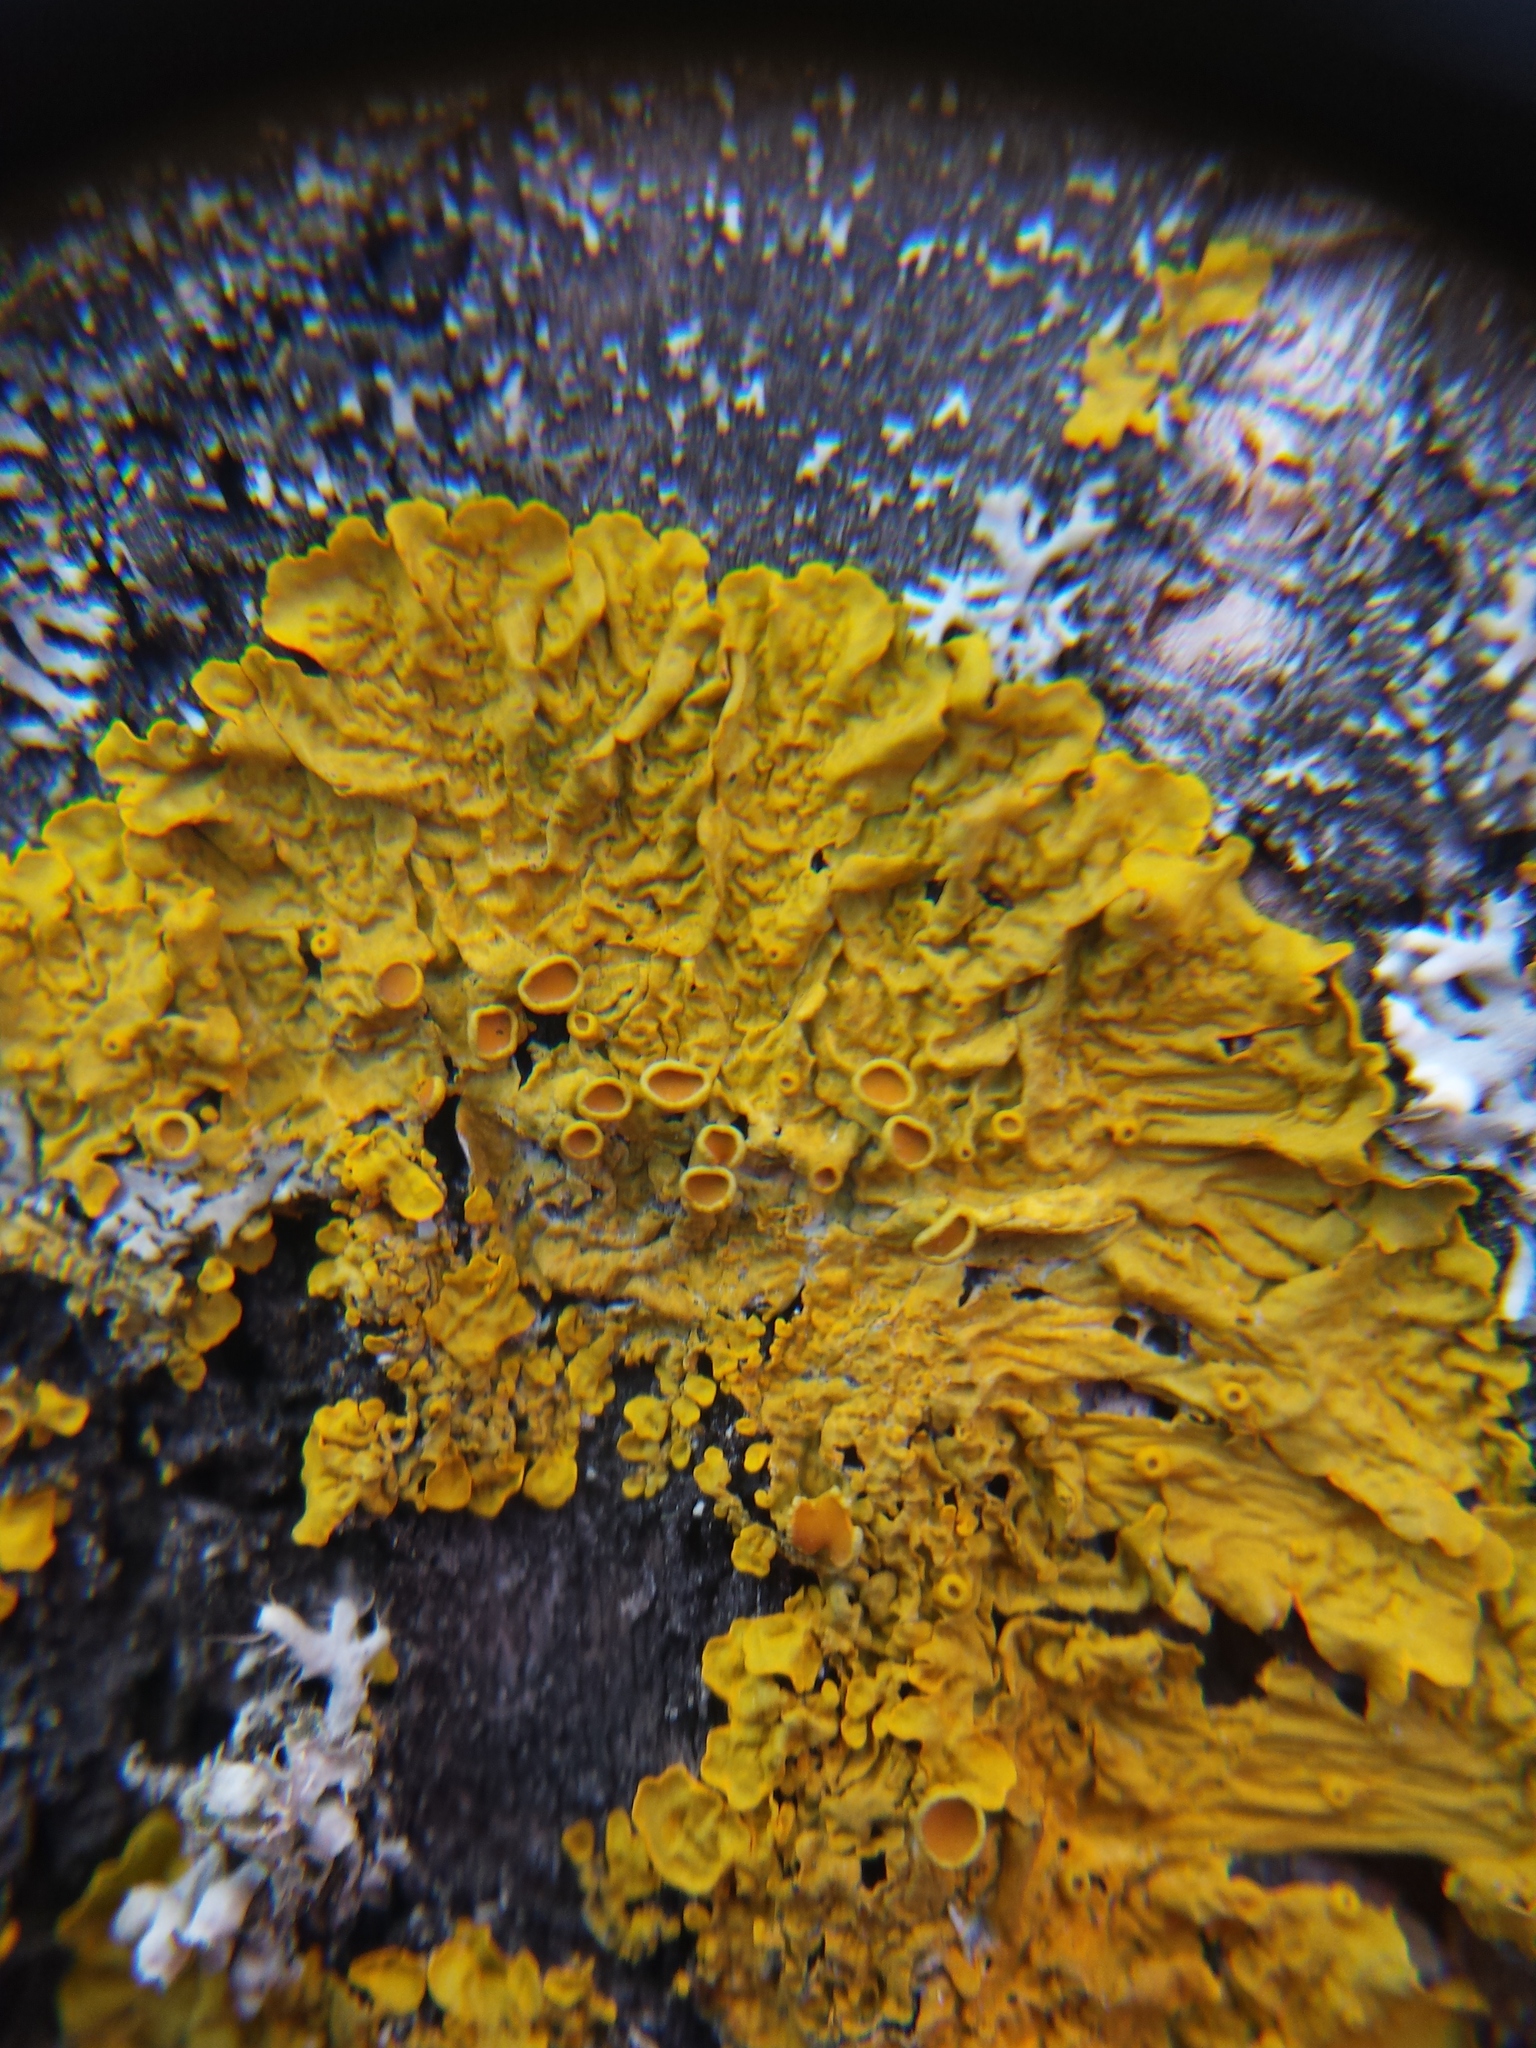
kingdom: Fungi
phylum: Ascomycota
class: Lecanoromycetes
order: Teloschistales
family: Teloschistaceae
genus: Xanthoria
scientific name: Xanthoria parietina
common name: Common orange lichen
